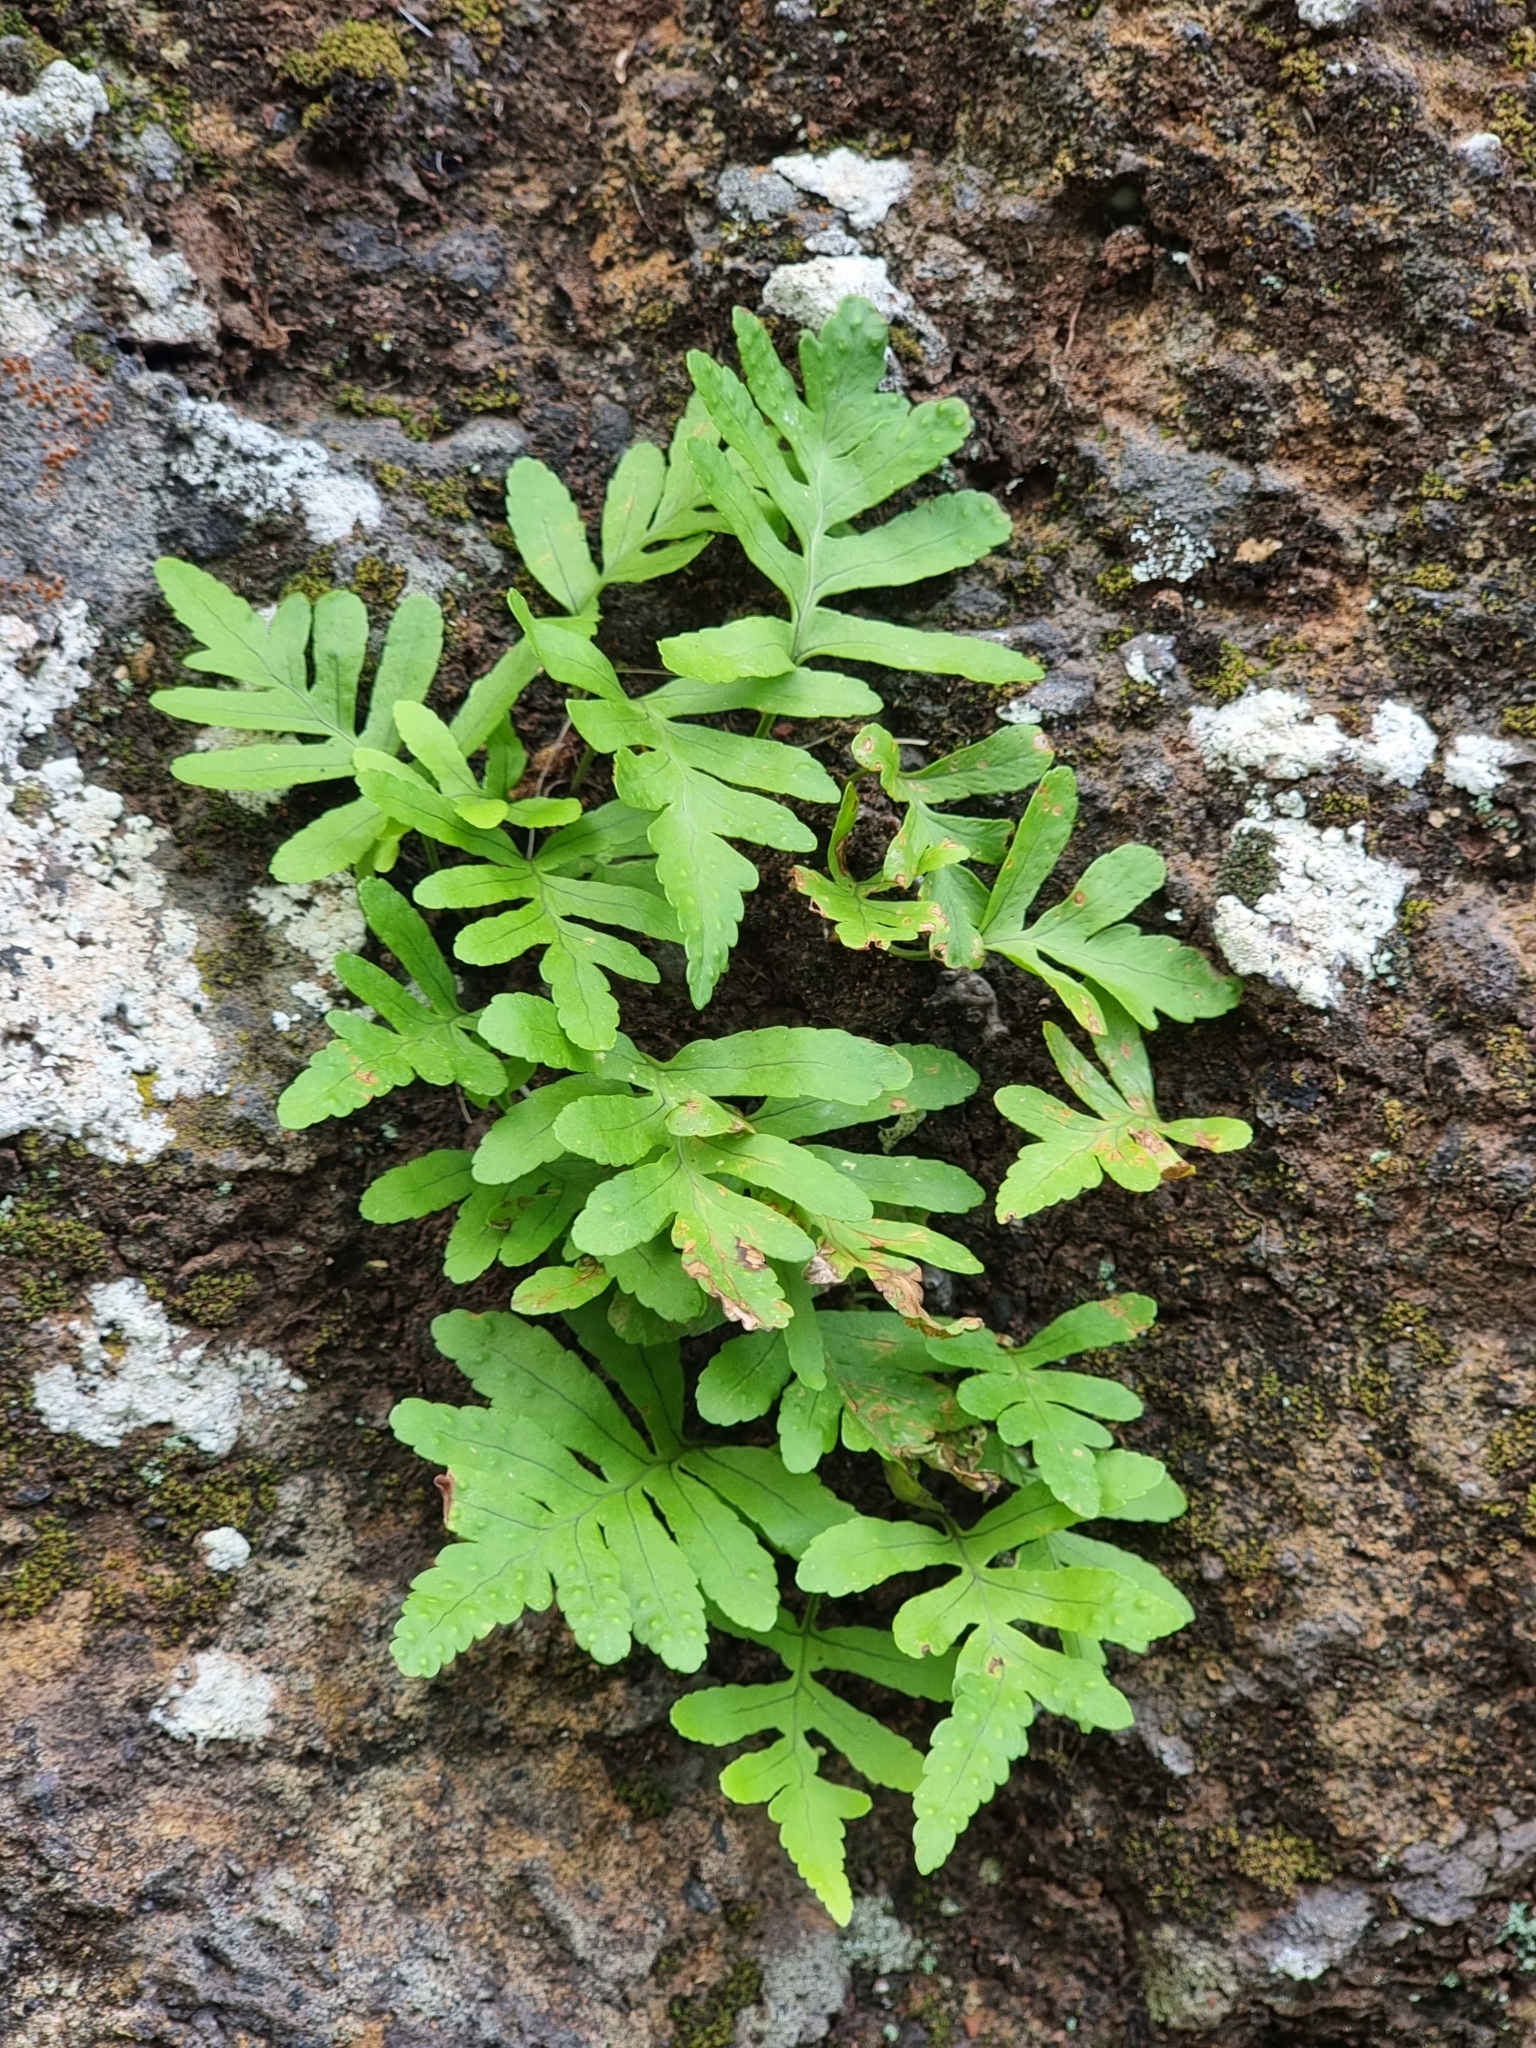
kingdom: Plantae
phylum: Tracheophyta
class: Polypodiopsida
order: Polypodiales
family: Polypodiaceae
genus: Polypodium
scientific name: Polypodium macaronesicum
